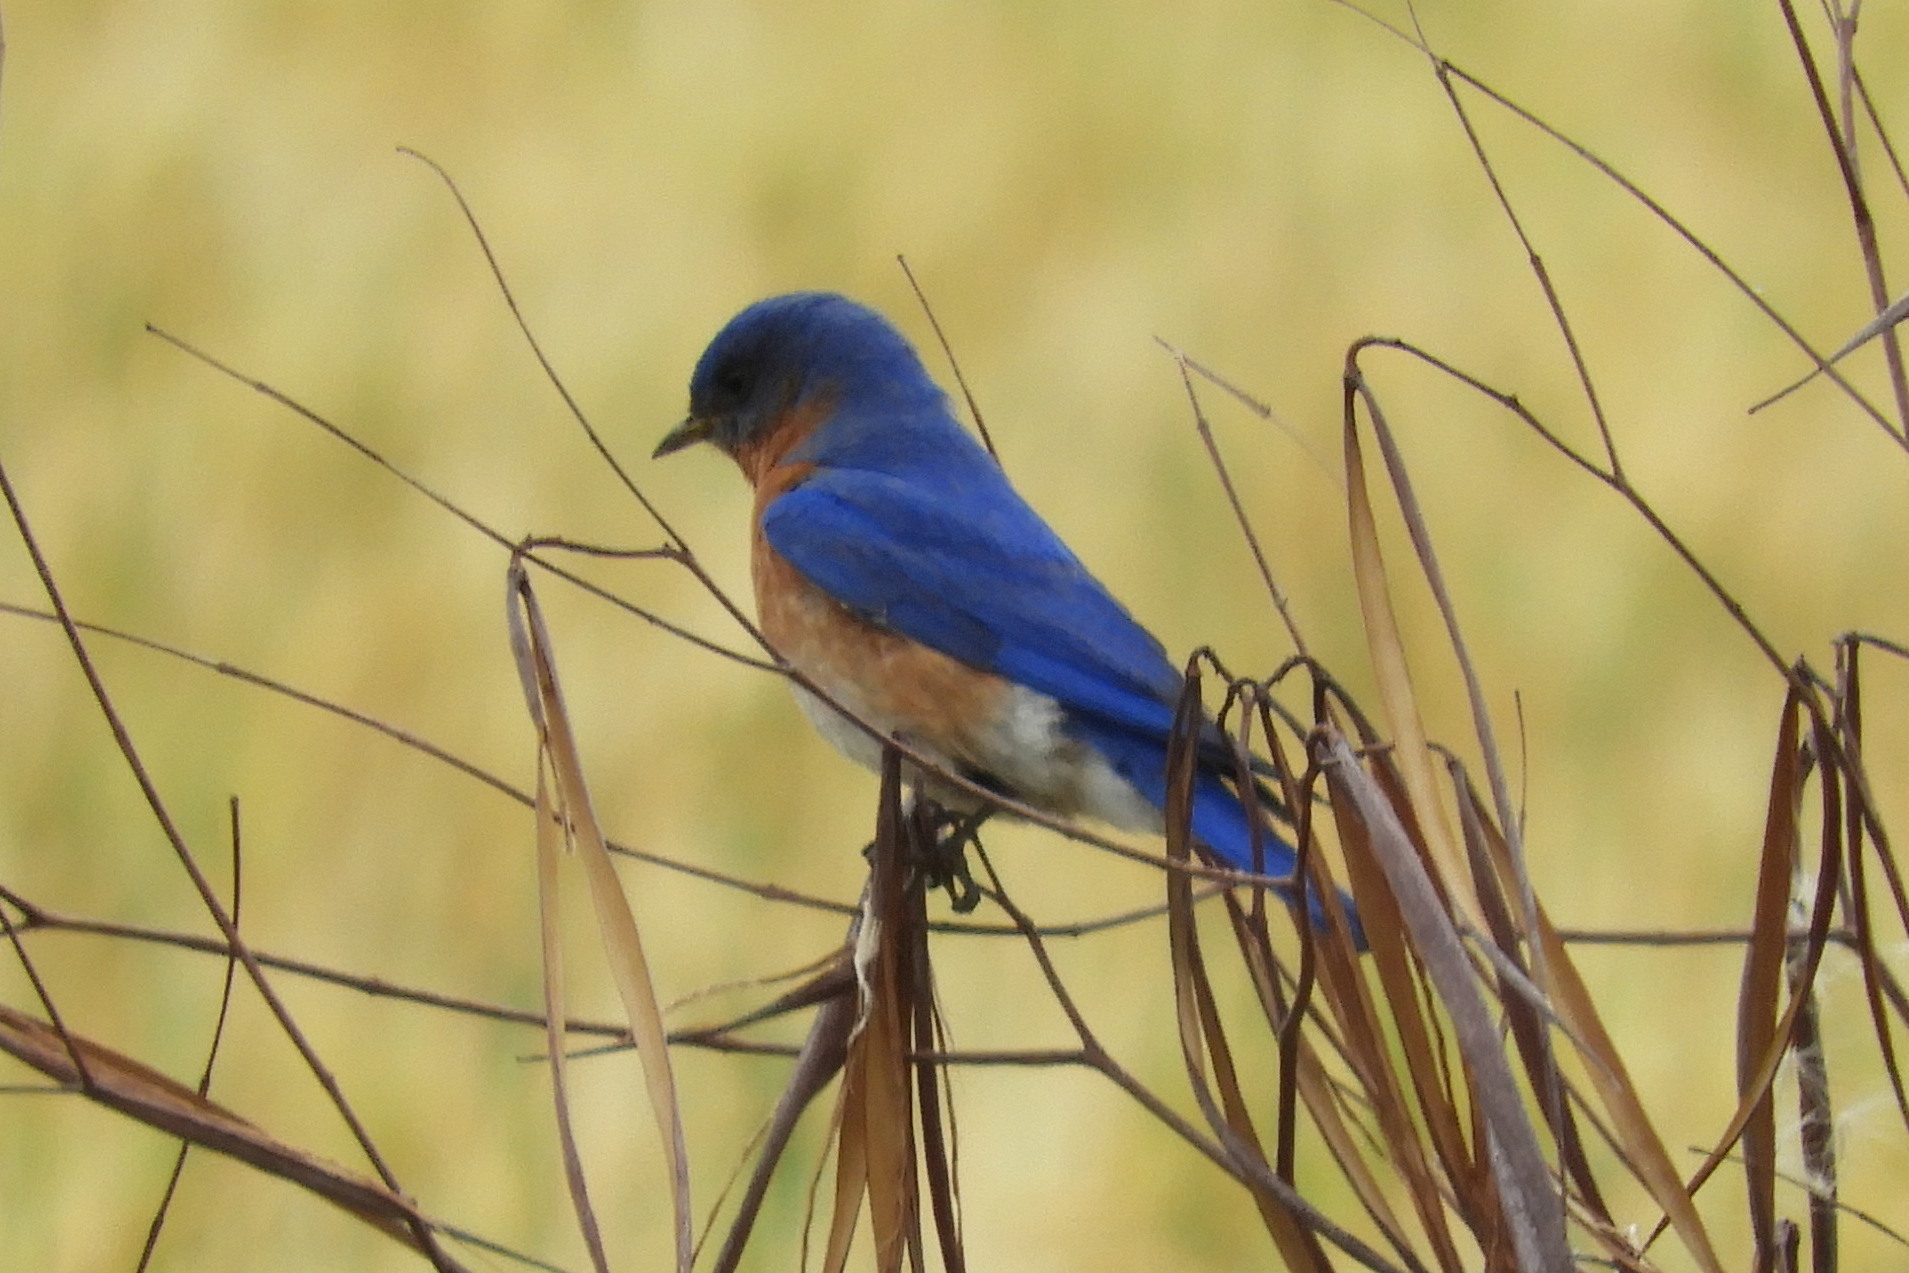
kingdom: Animalia
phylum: Chordata
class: Aves
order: Passeriformes
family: Turdidae
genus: Sialia
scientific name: Sialia sialis
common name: Eastern bluebird
